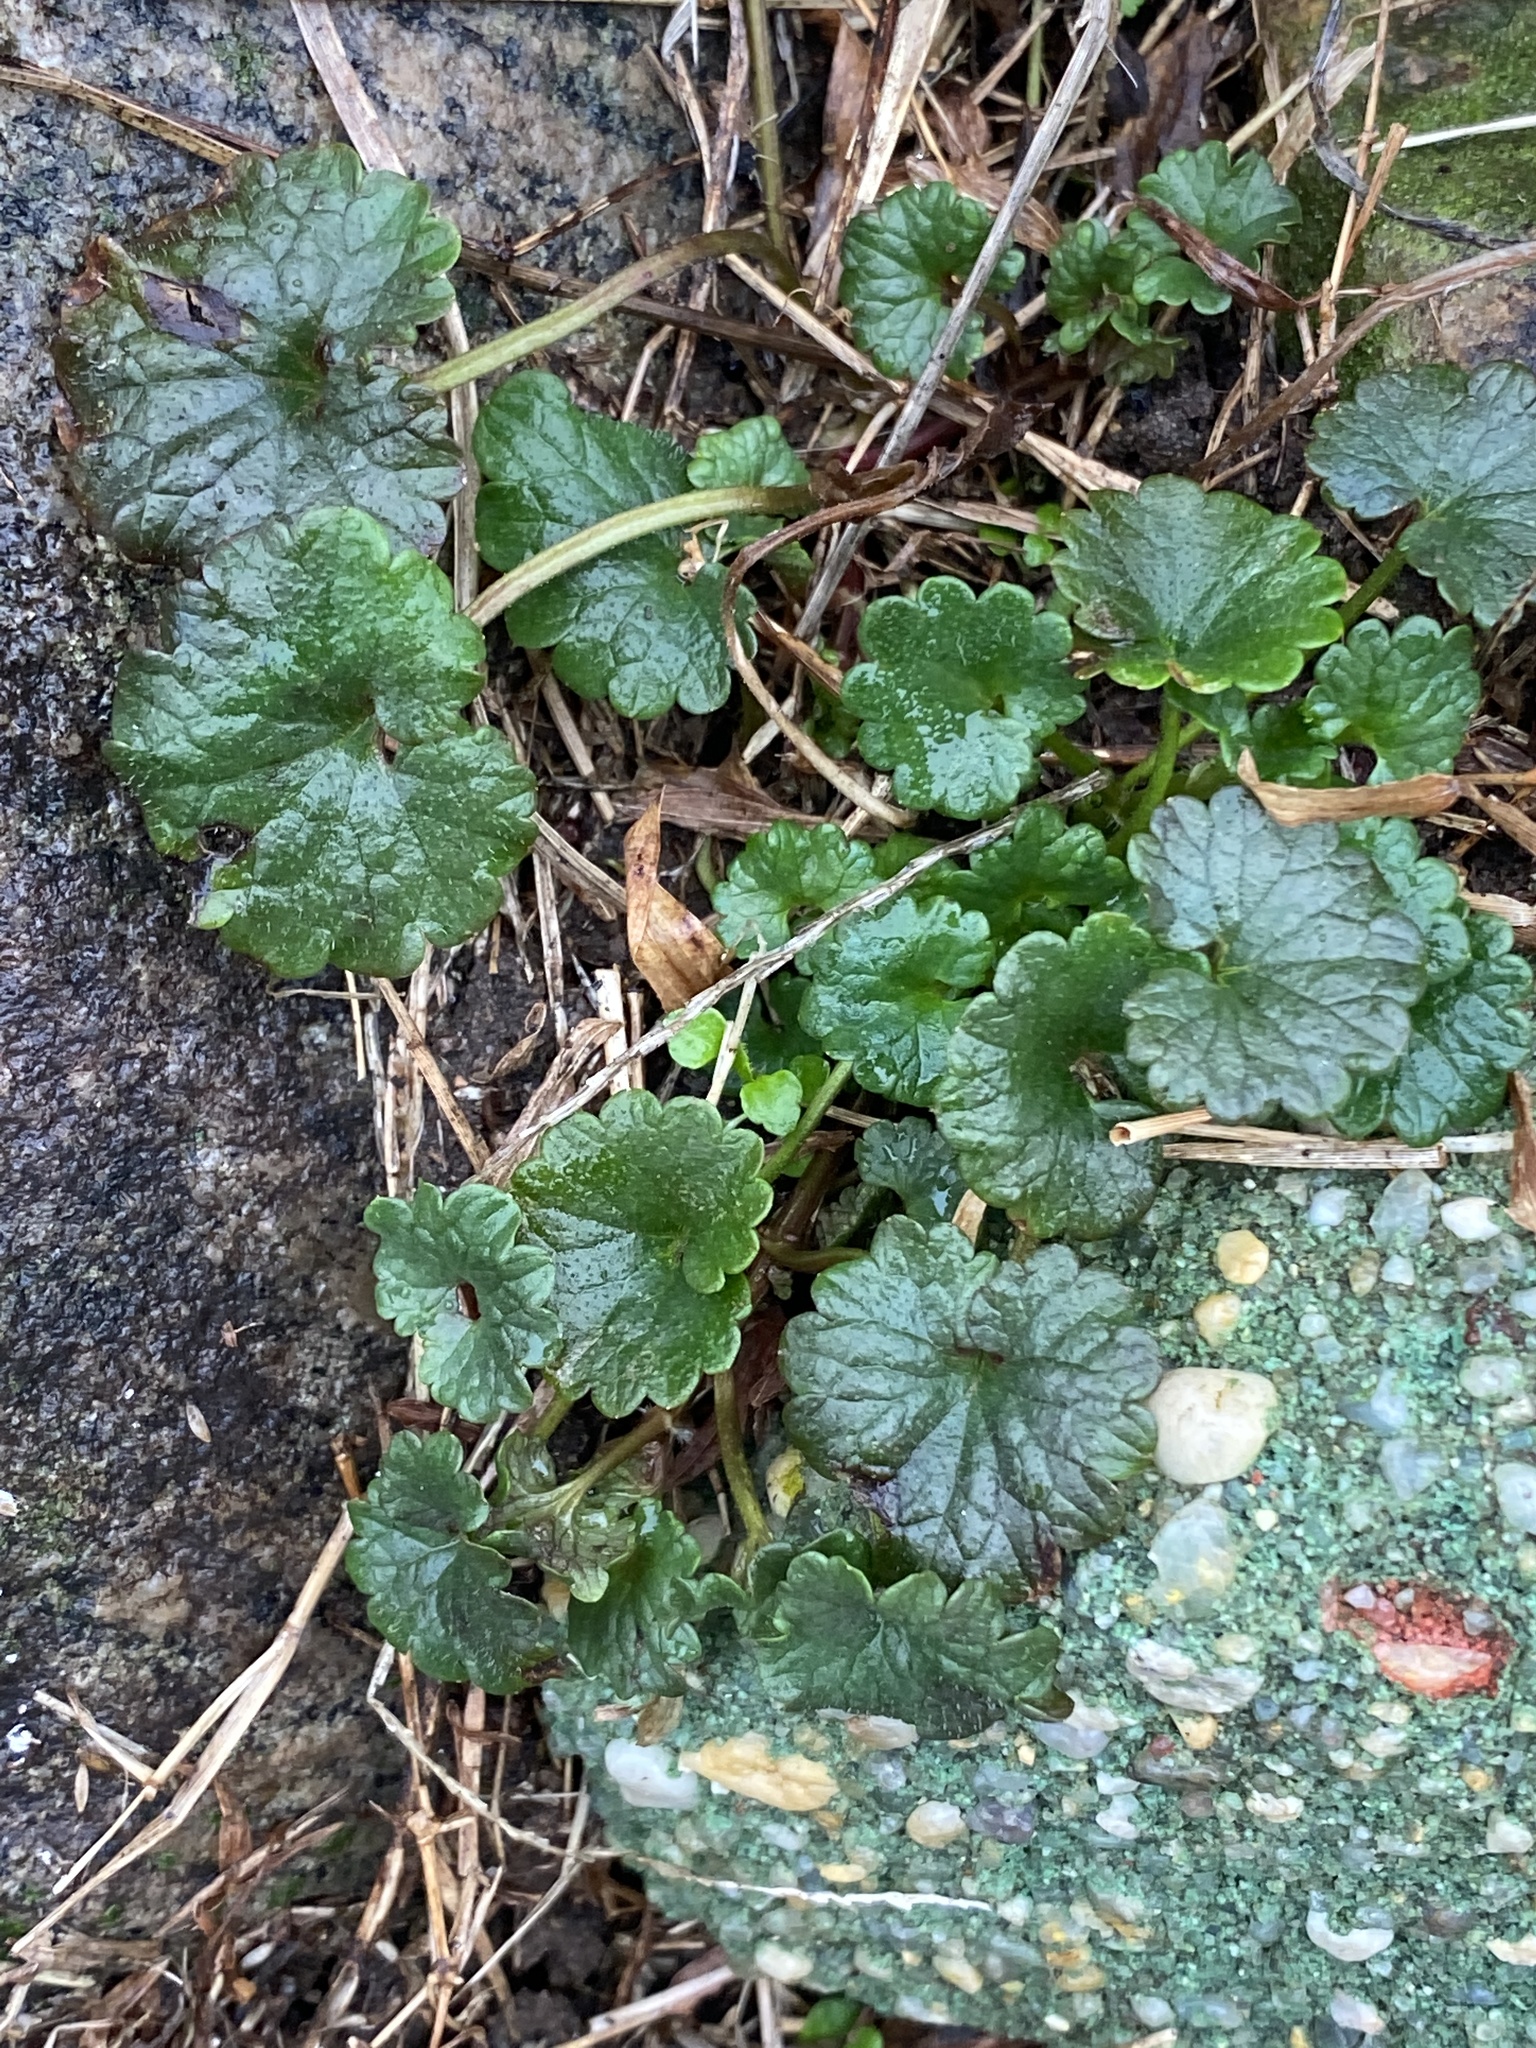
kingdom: Plantae
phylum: Tracheophyta
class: Magnoliopsida
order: Lamiales
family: Lamiaceae
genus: Glechoma
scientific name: Glechoma hederacea
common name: Ground ivy
